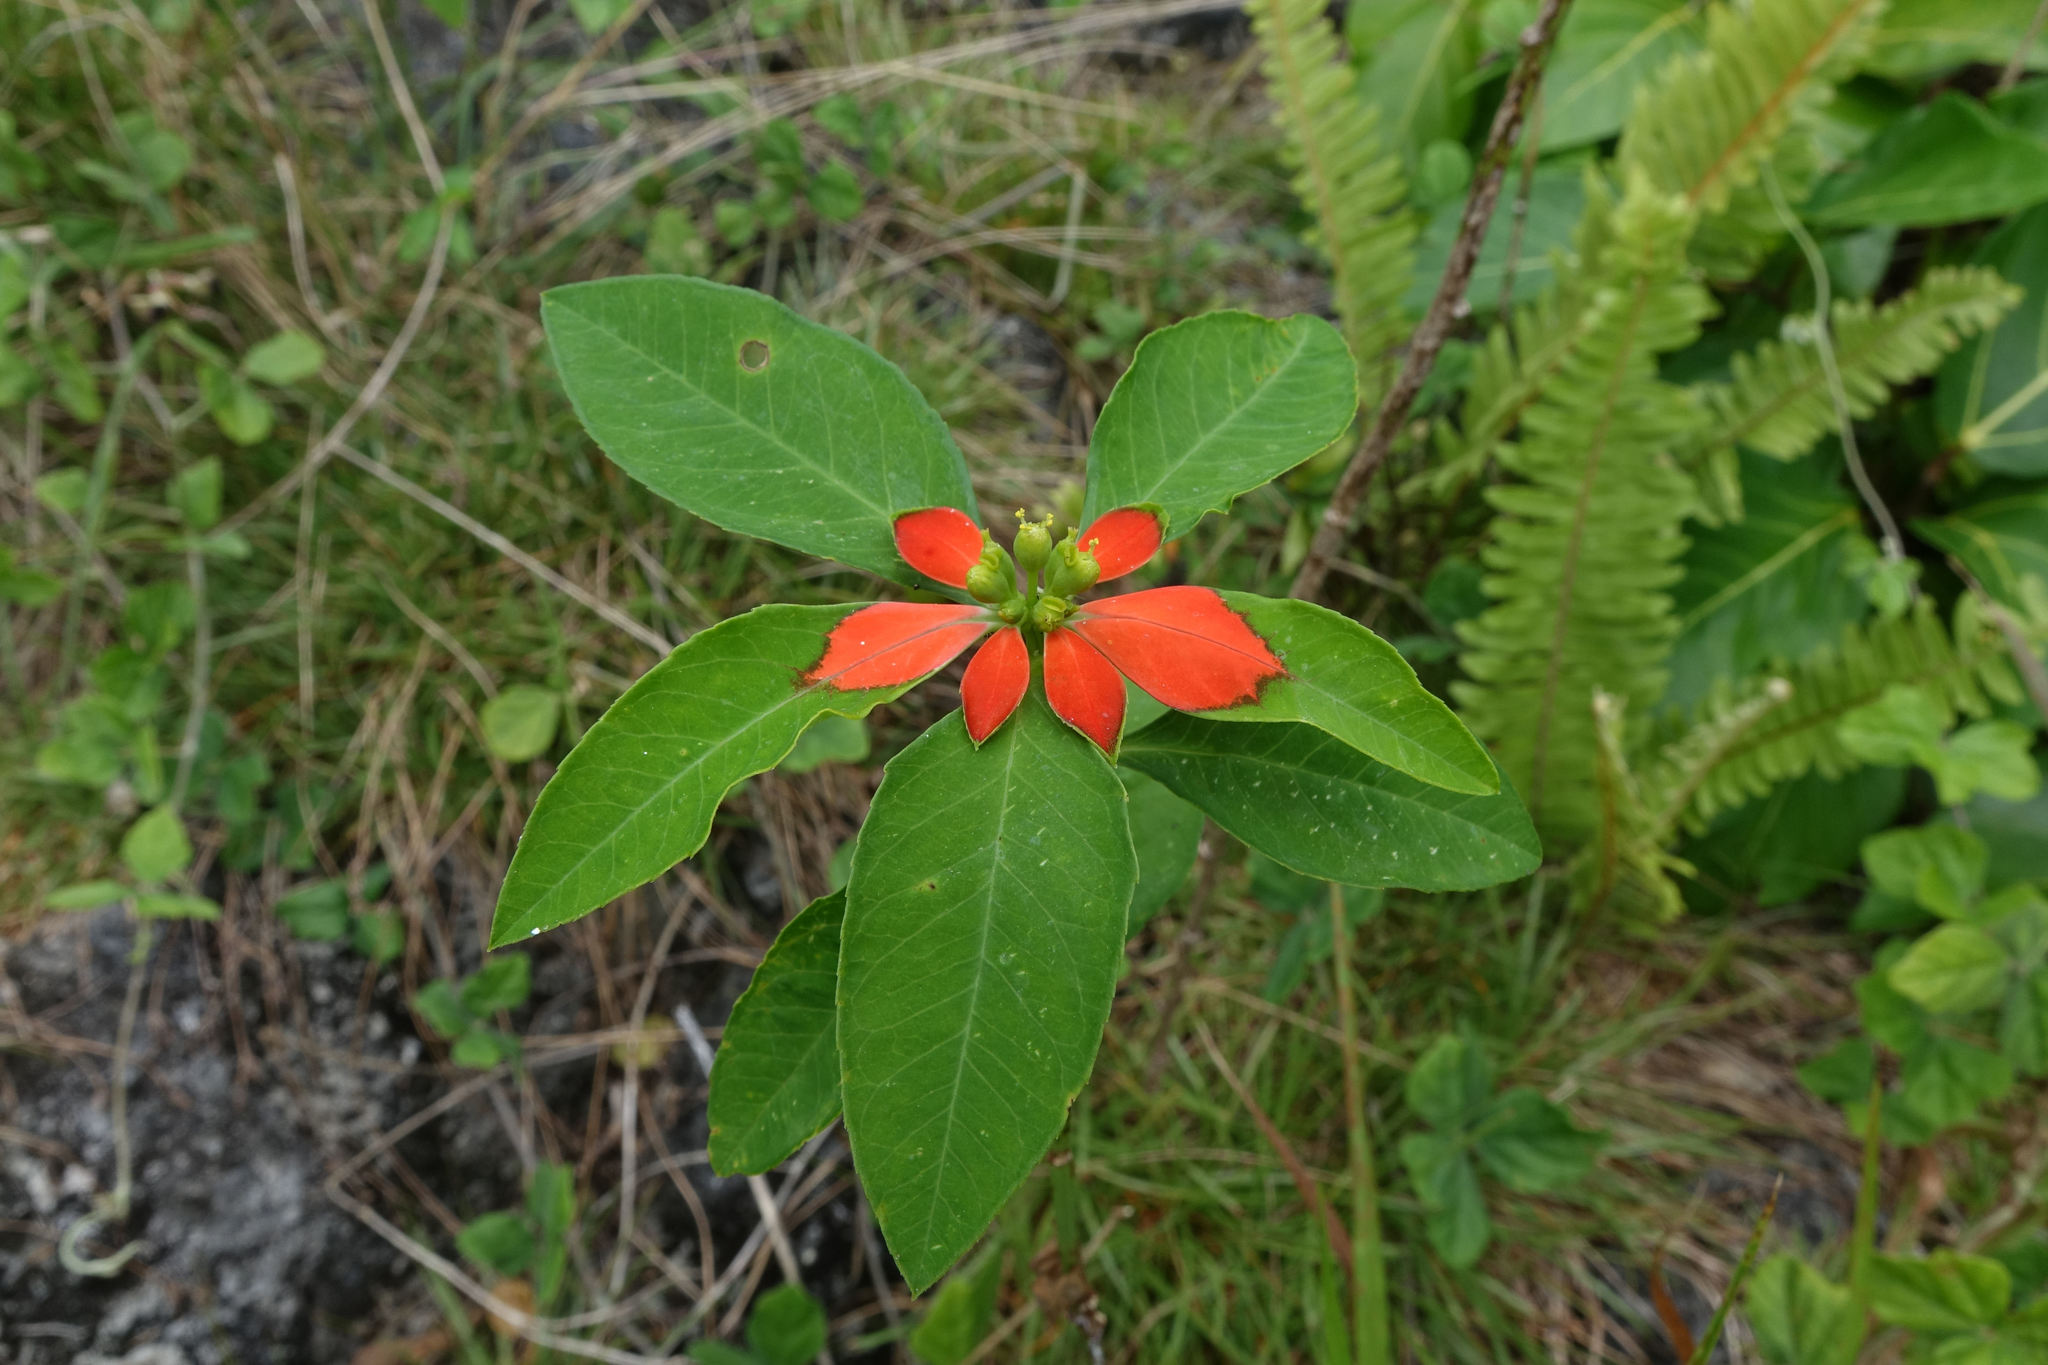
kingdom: Plantae
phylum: Tracheophyta
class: Magnoliopsida
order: Malpighiales
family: Euphorbiaceae
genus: Euphorbia
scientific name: Euphorbia heterophylla
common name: Mexican fireplant
